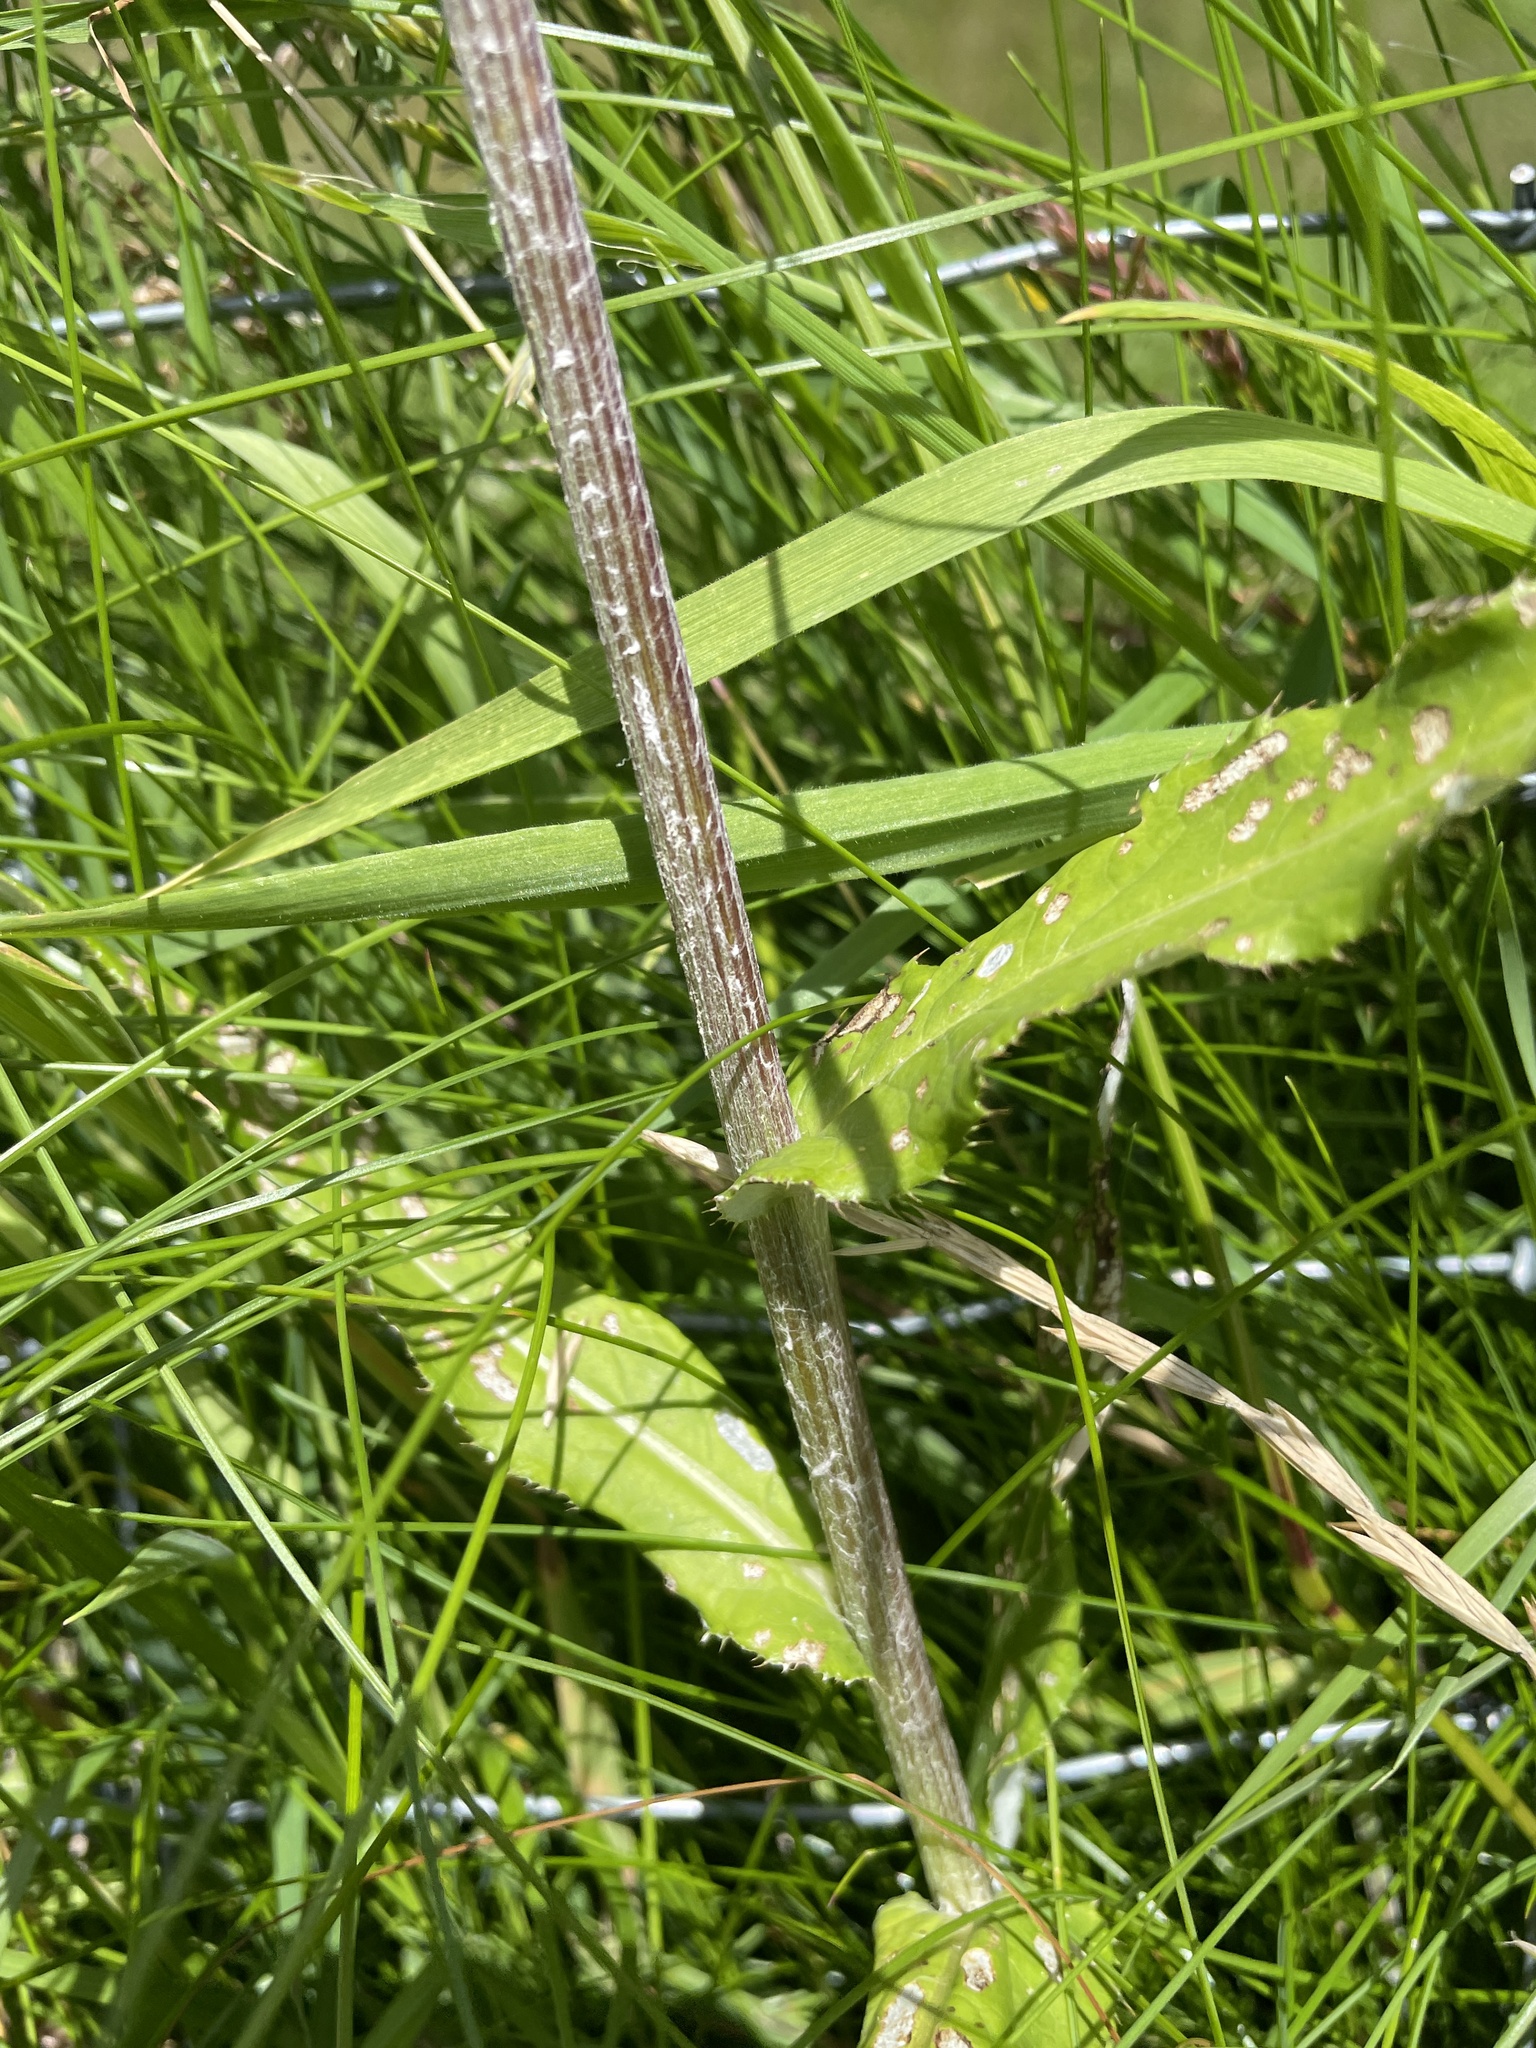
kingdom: Plantae
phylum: Tracheophyta
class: Magnoliopsida
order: Asterales
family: Asteraceae
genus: Cirsium
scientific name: Cirsium heterophyllum
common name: Melancholy thistle
